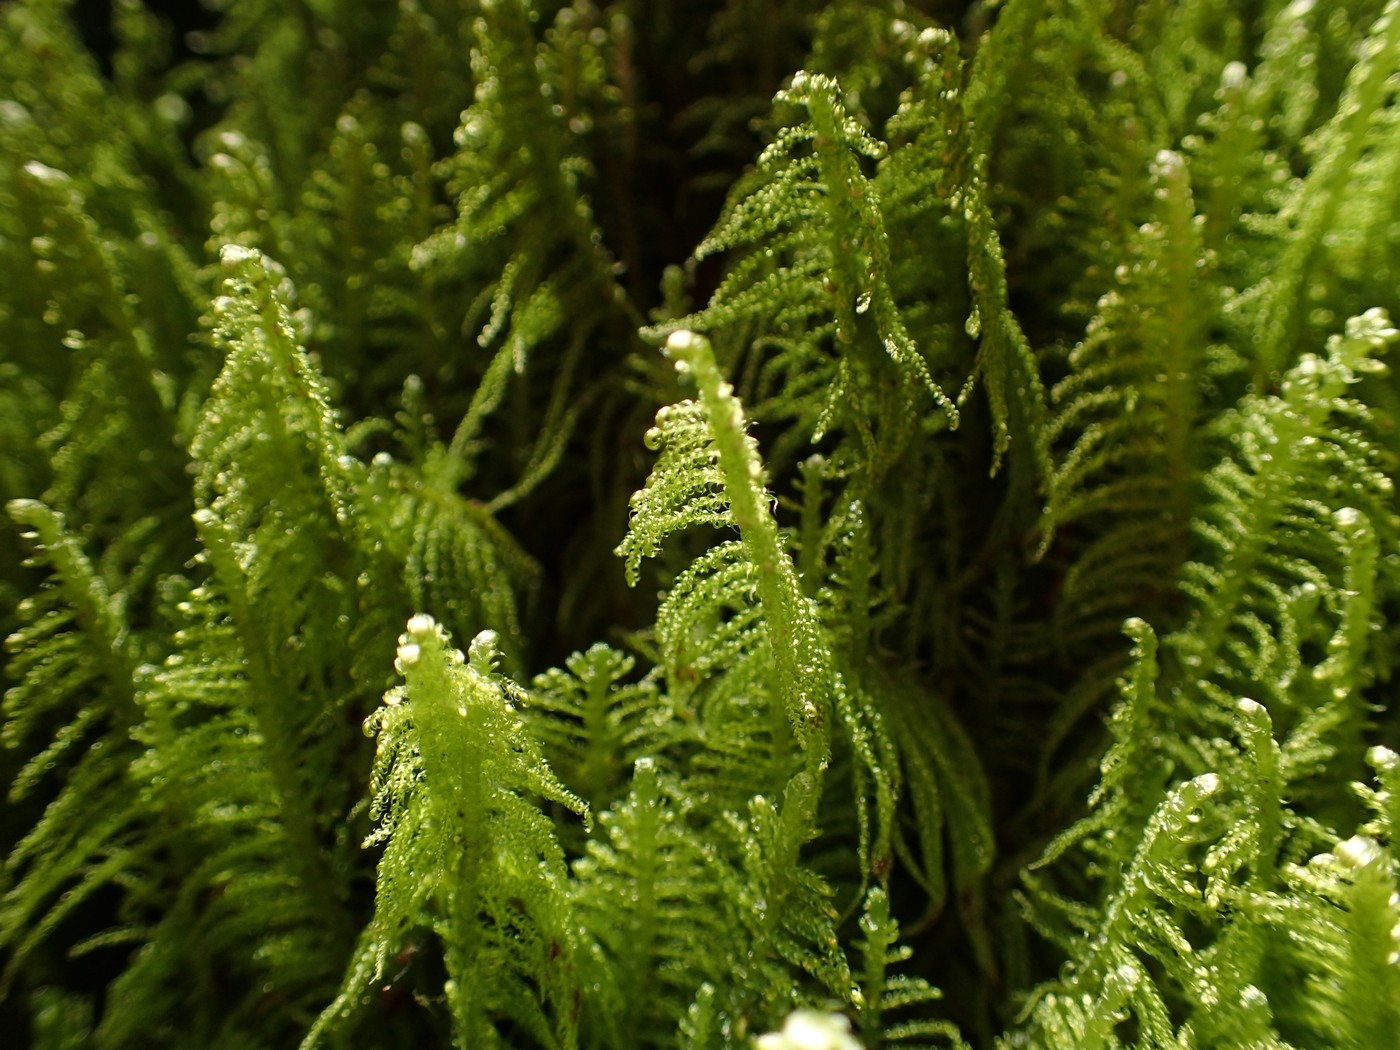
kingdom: Plantae
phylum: Bryophyta
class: Bryopsida
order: Hypnales
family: Pylaisiaceae
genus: Ptilium
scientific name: Ptilium crista-castrensis
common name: Knight's plume moss
